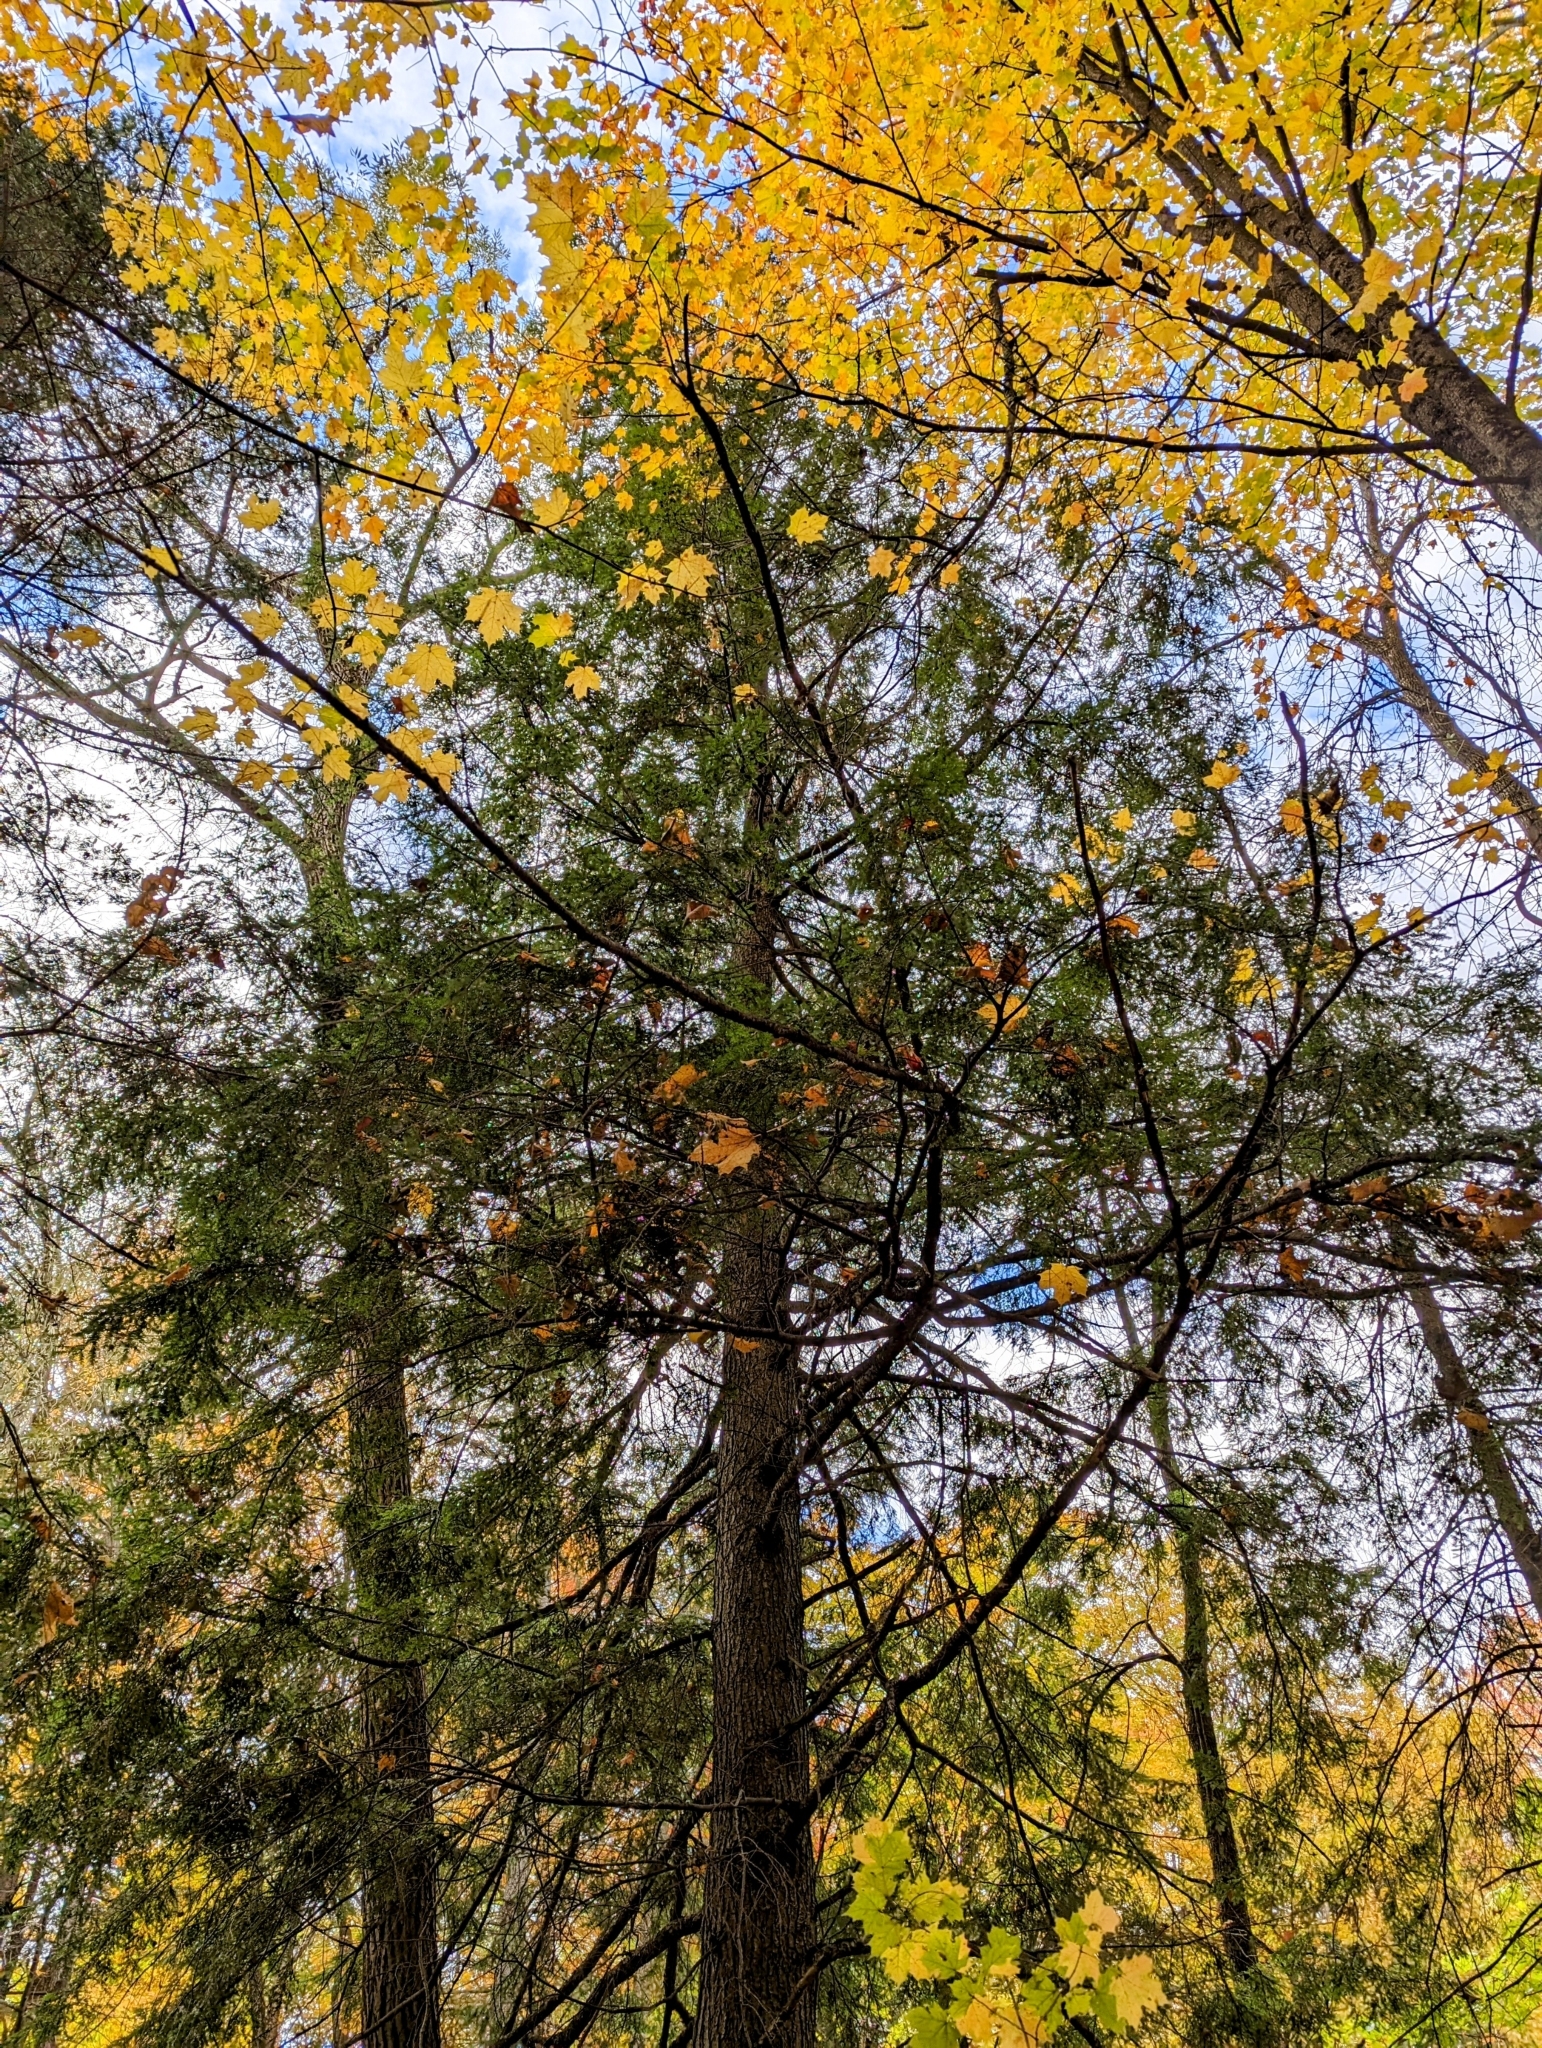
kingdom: Plantae
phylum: Tracheophyta
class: Pinopsida
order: Pinales
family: Pinaceae
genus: Tsuga
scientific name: Tsuga canadensis
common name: Eastern hemlock
